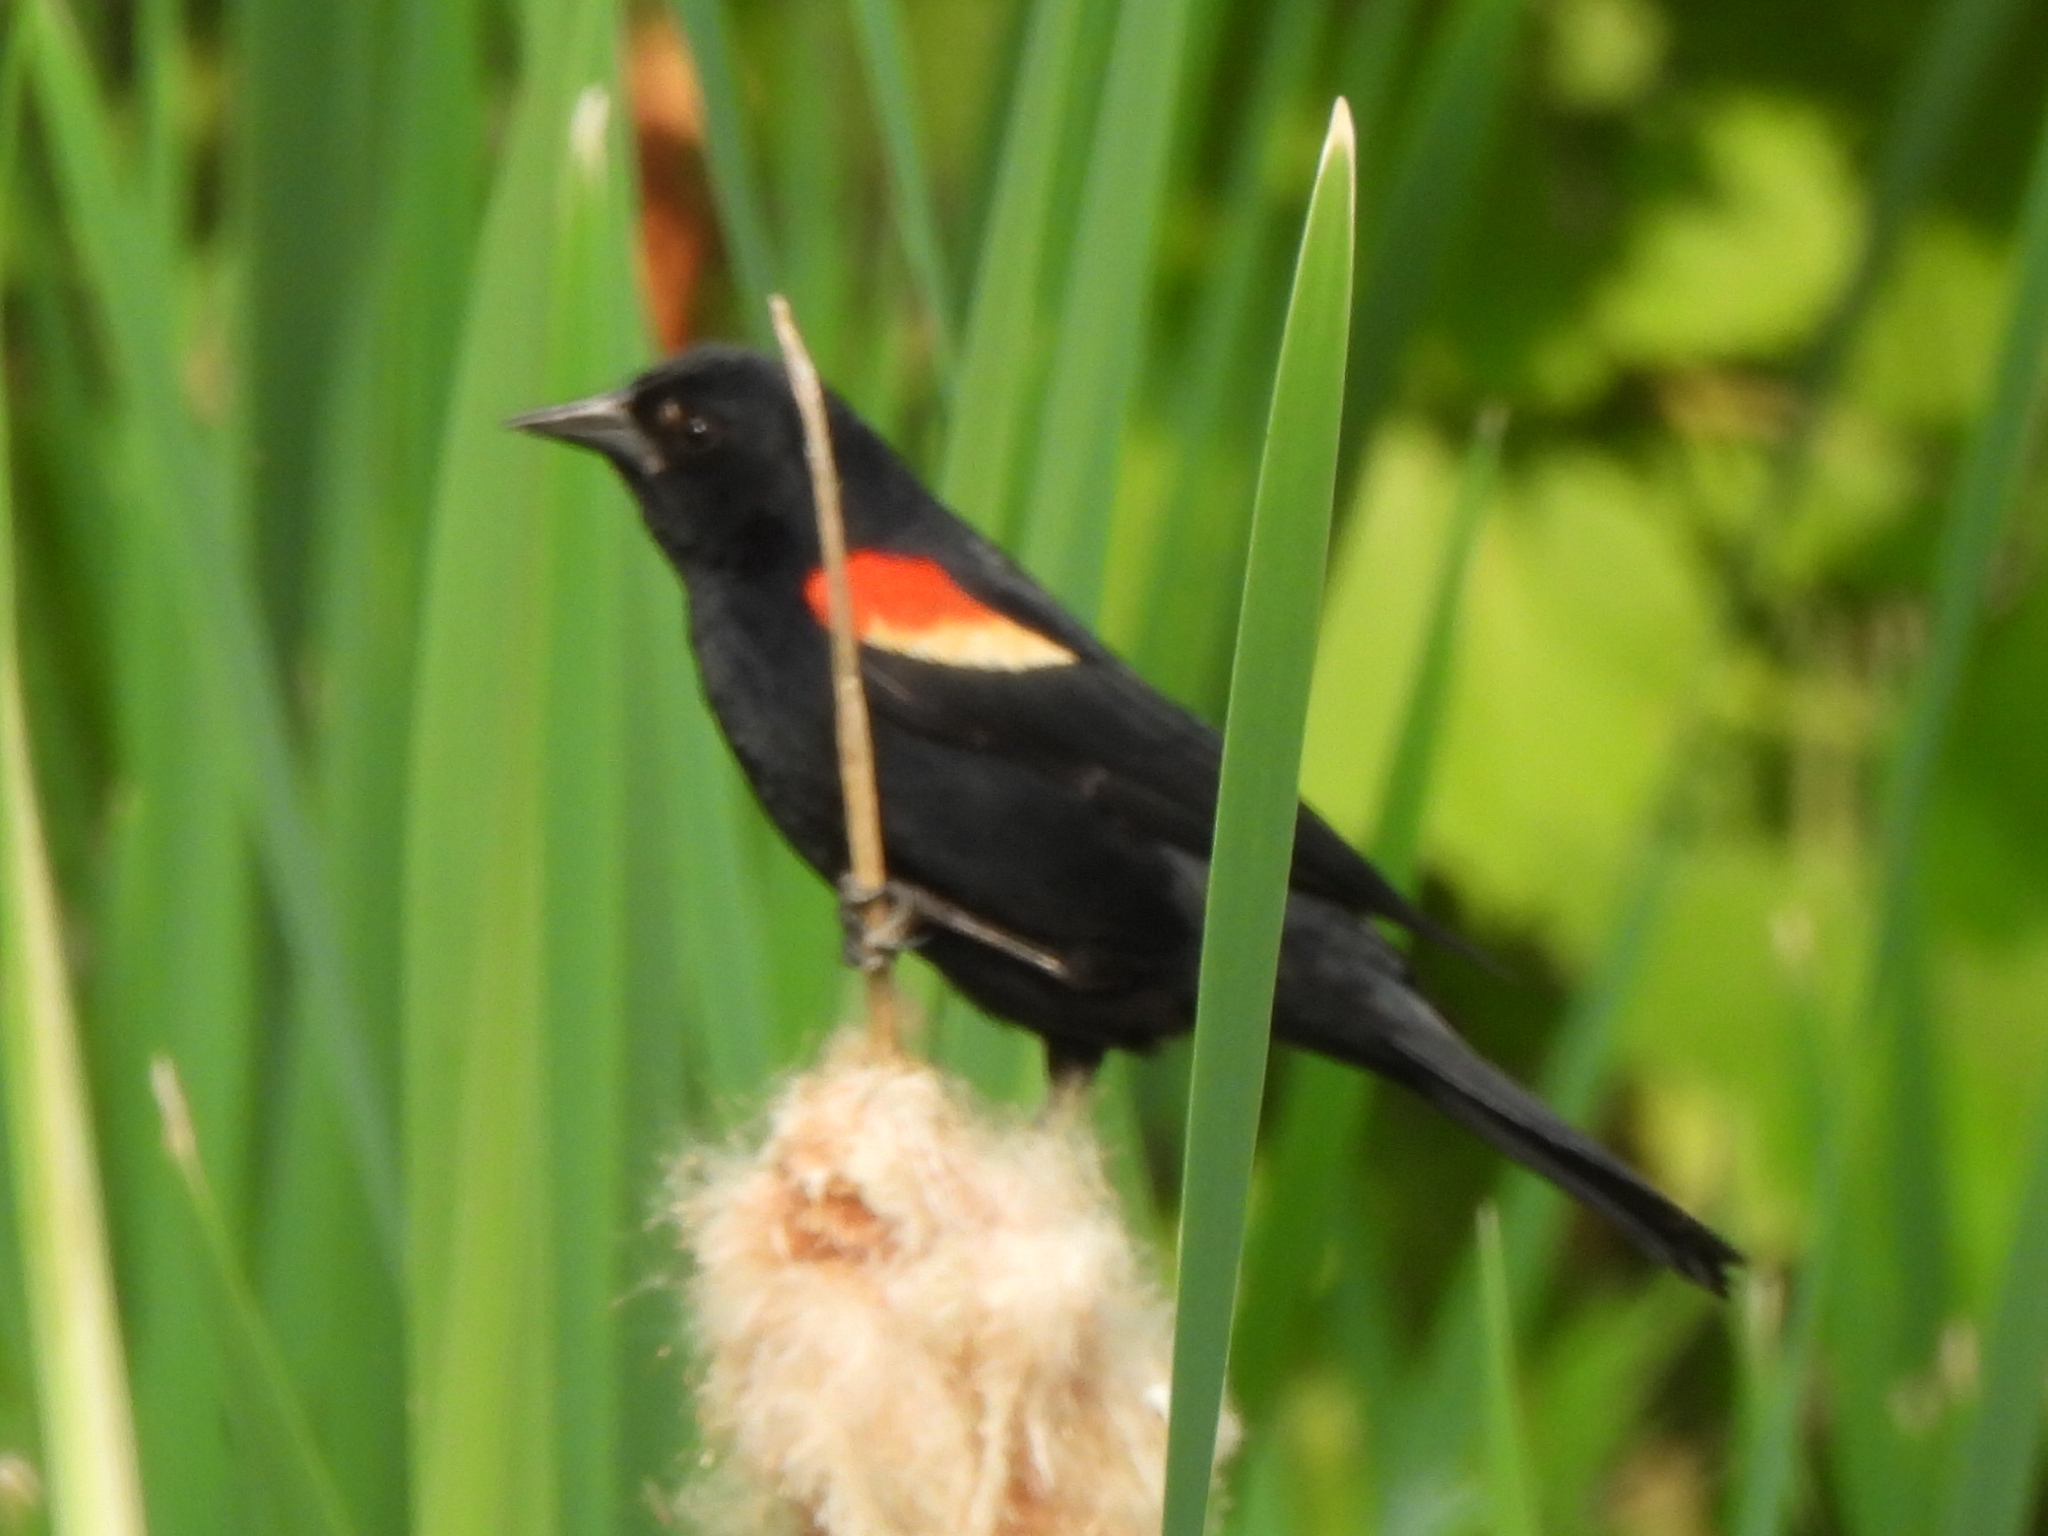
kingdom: Animalia
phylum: Chordata
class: Aves
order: Passeriformes
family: Icteridae
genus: Agelaius
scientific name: Agelaius phoeniceus
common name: Red-winged blackbird
